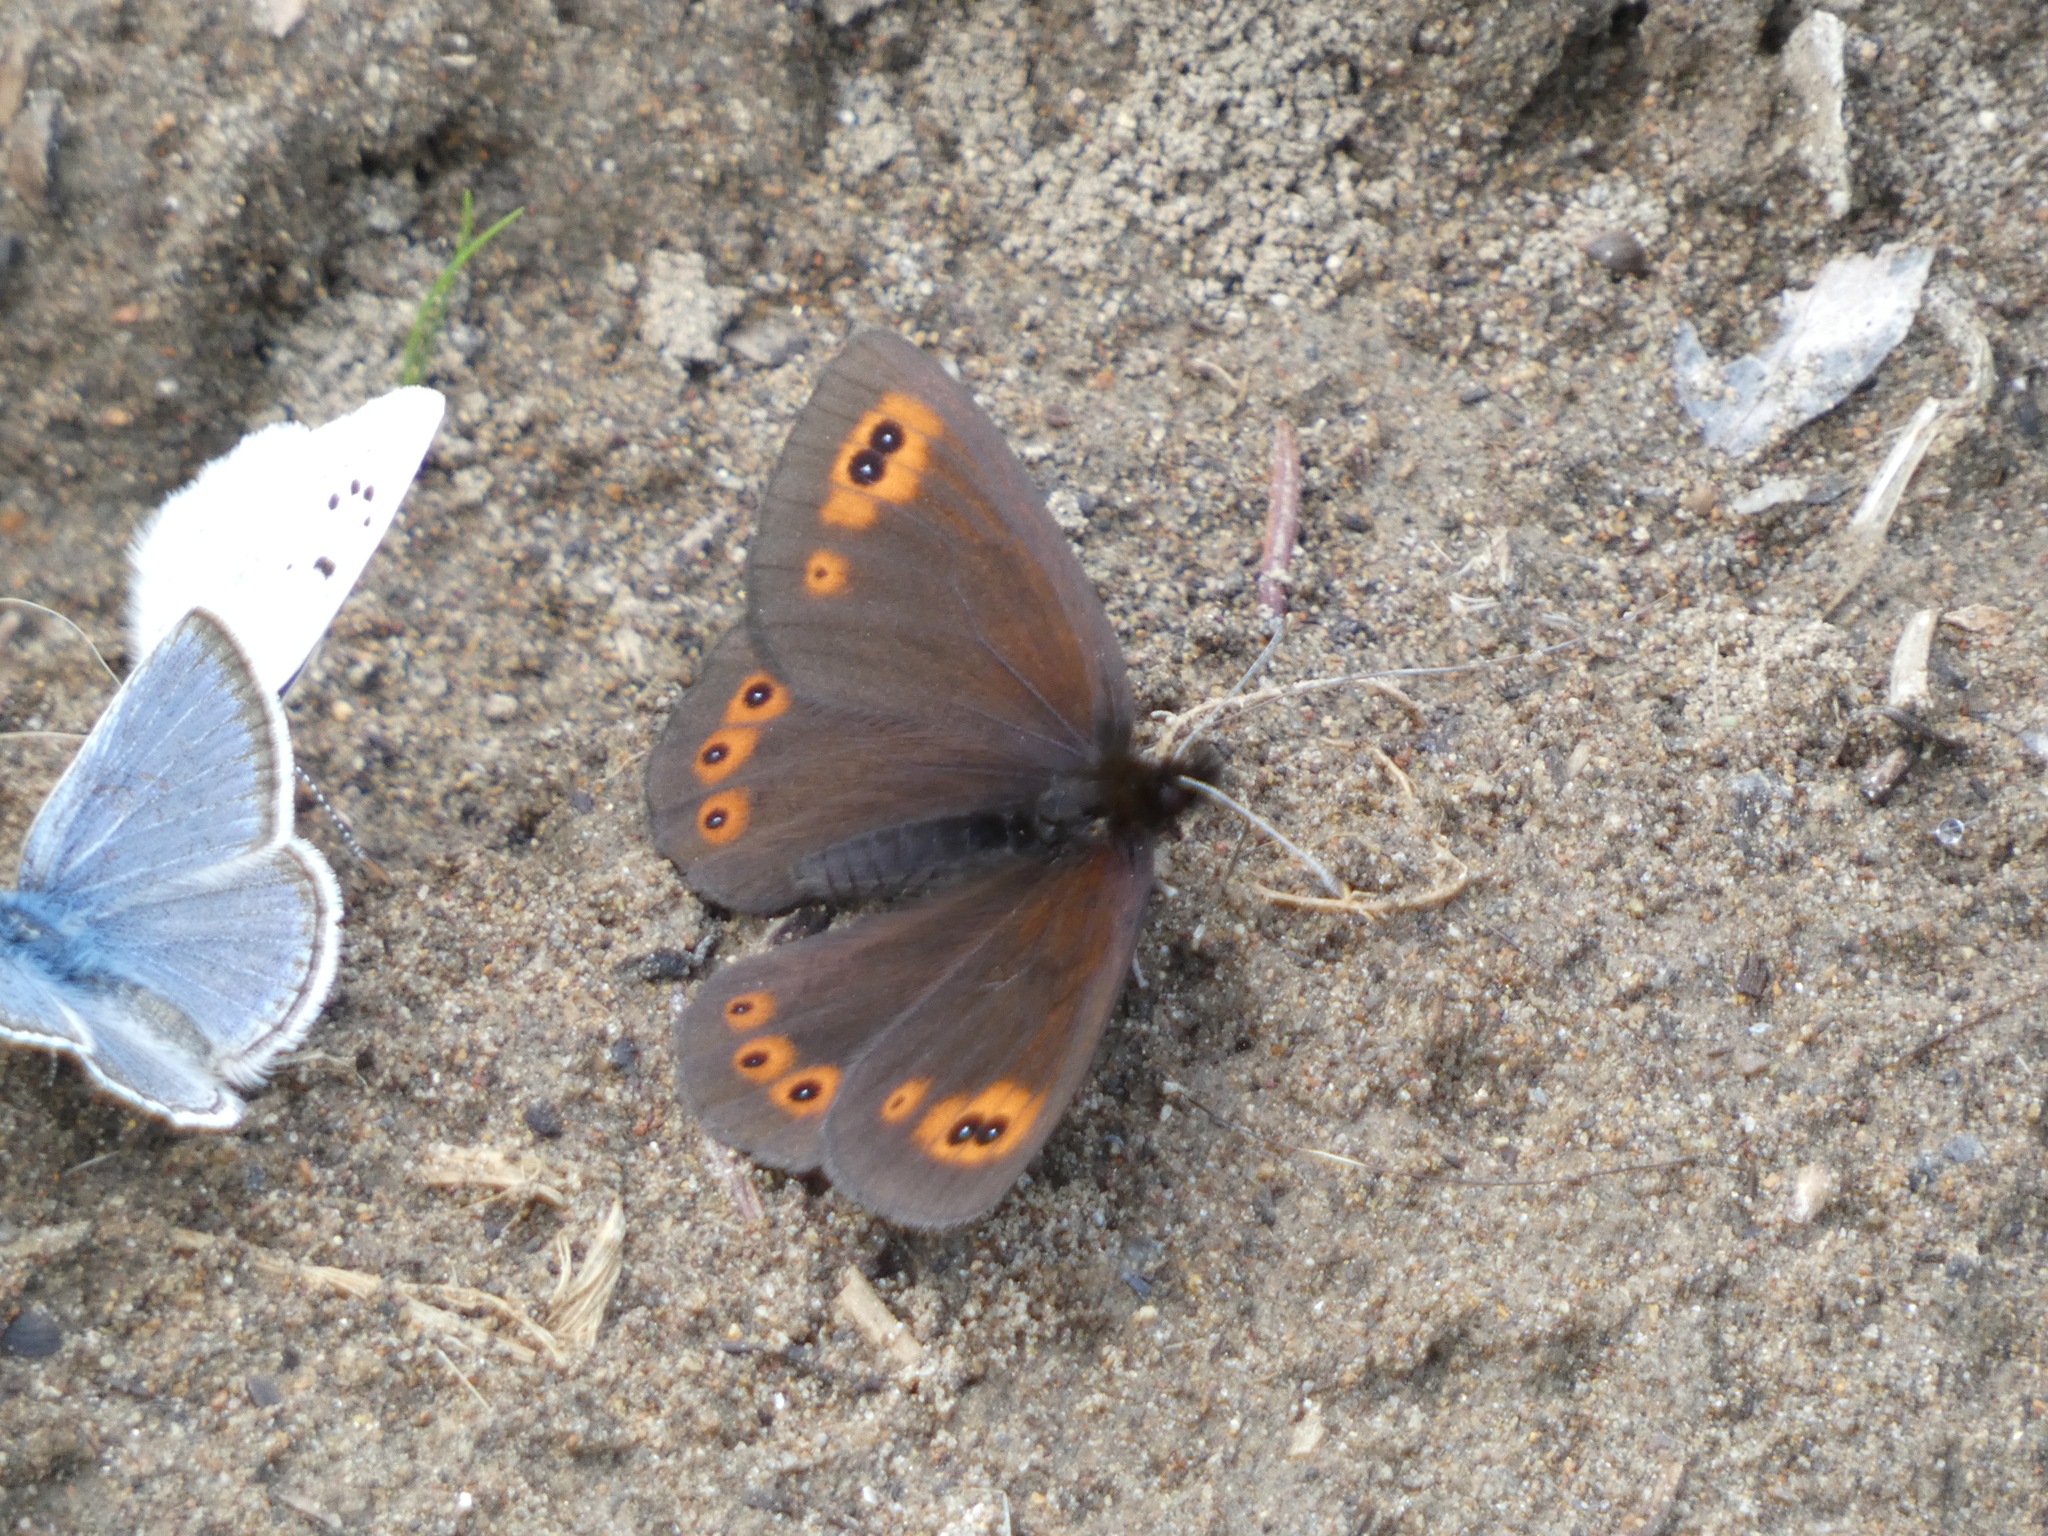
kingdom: Animalia
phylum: Arthropoda
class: Insecta
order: Lepidoptera
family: Nymphalidae
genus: Erebia
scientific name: Erebia epipsodea
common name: Common alpine
